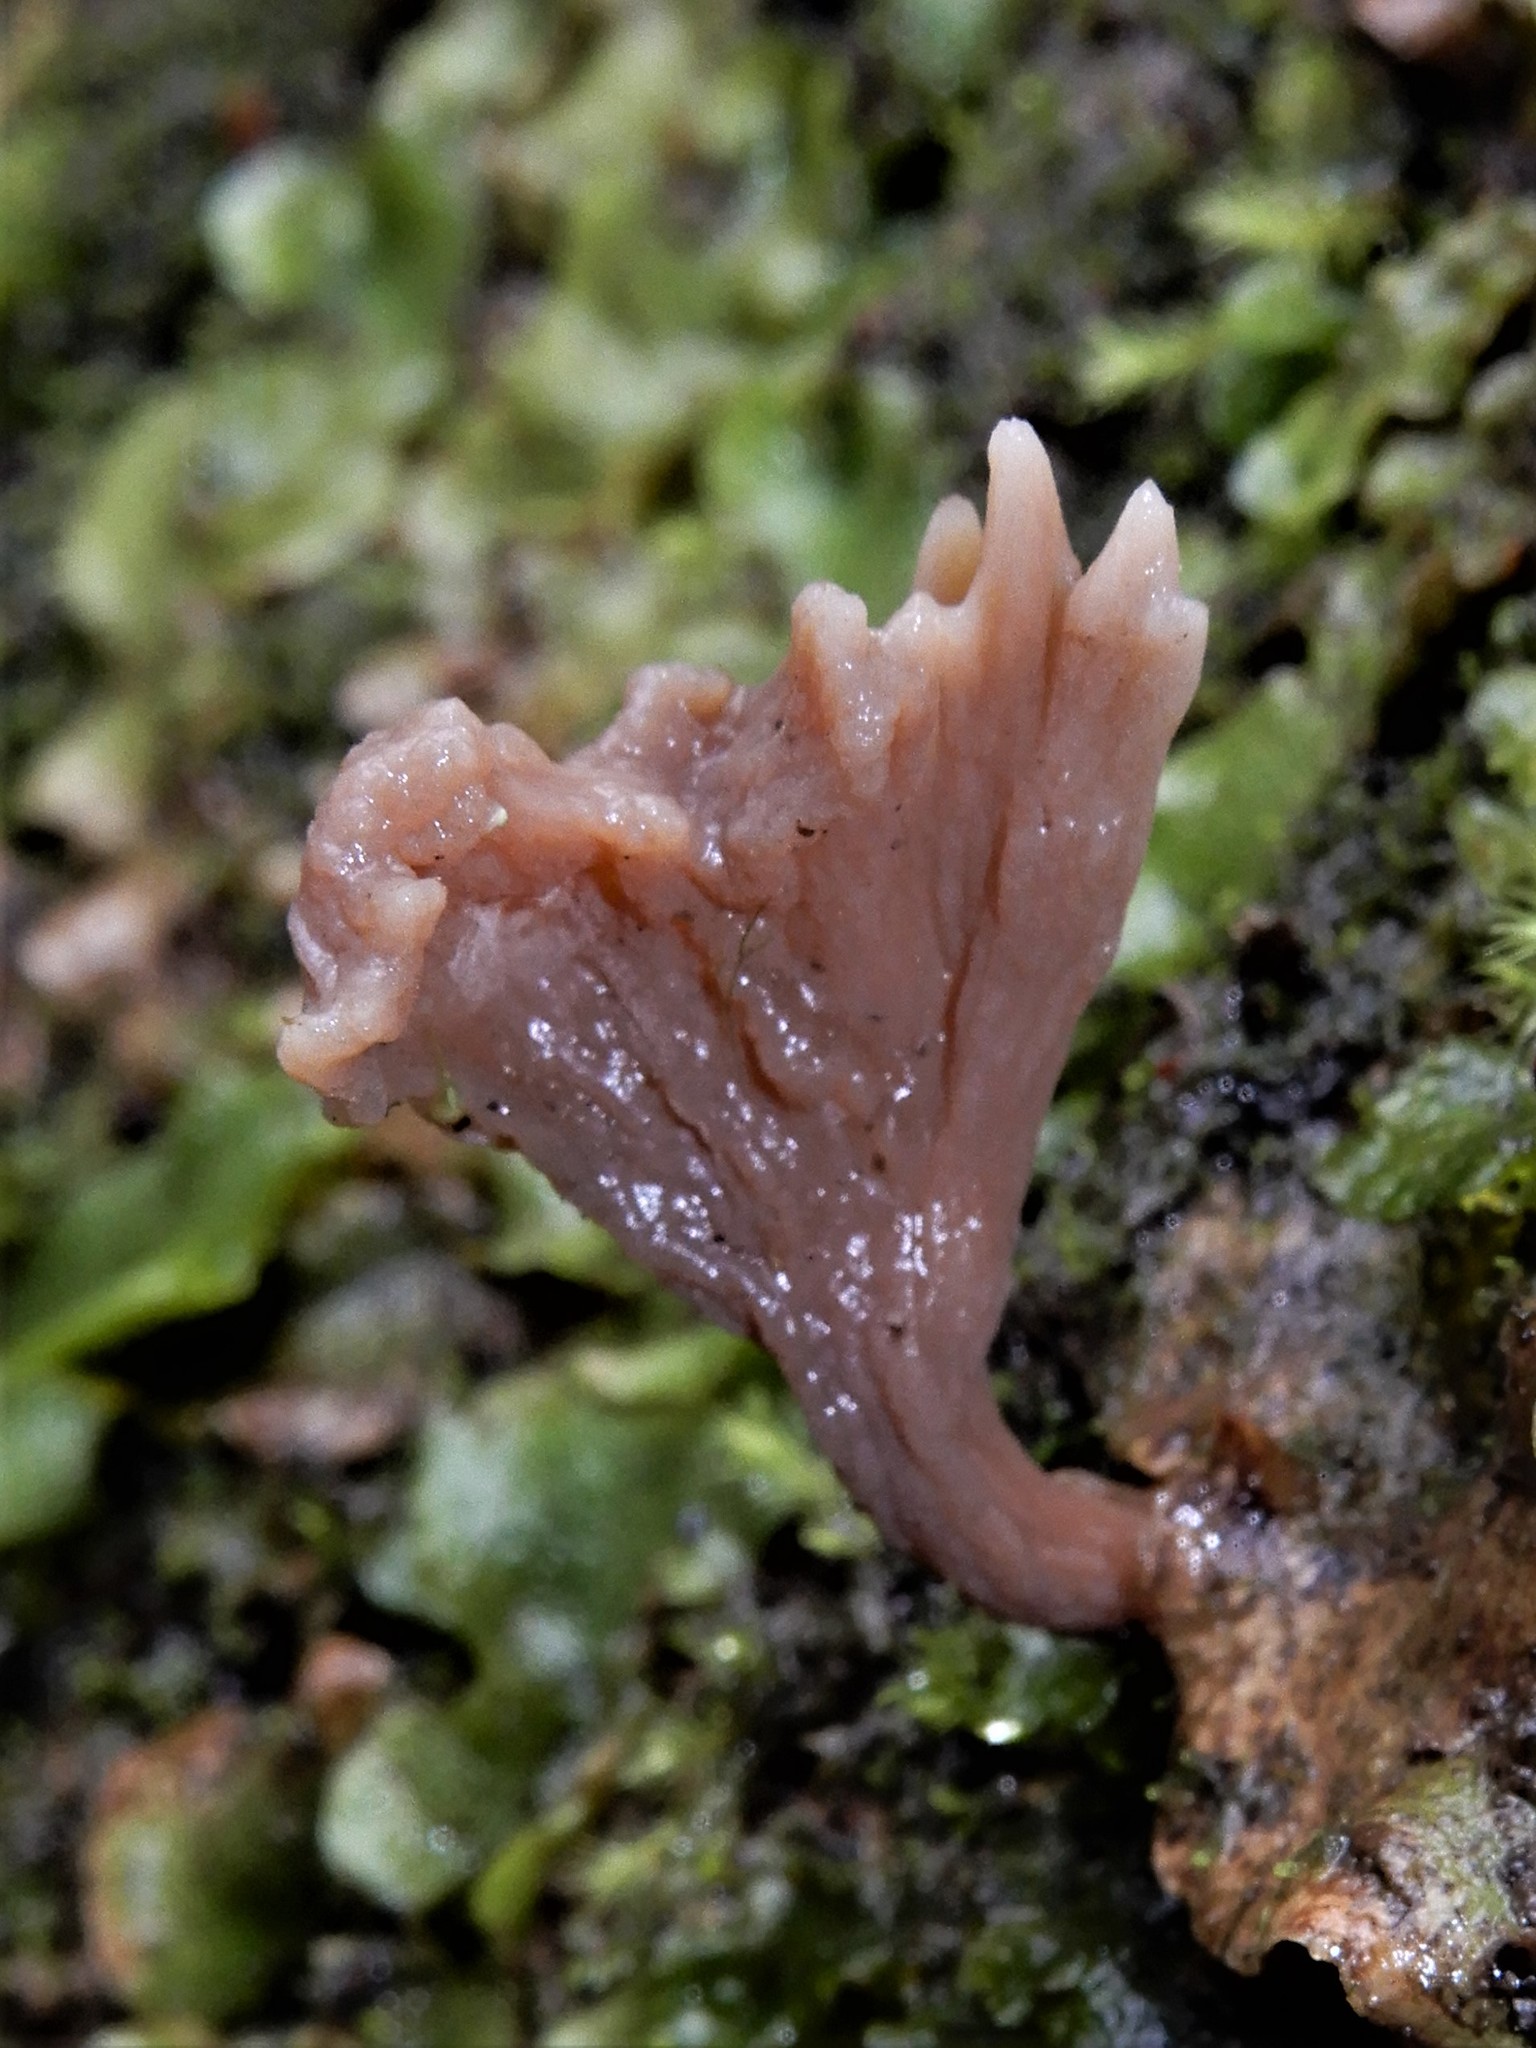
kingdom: Fungi
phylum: Basidiomycota
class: Agaricomycetes
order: Cantharellales
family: Hydnaceae
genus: Clavulina
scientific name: Clavulina
